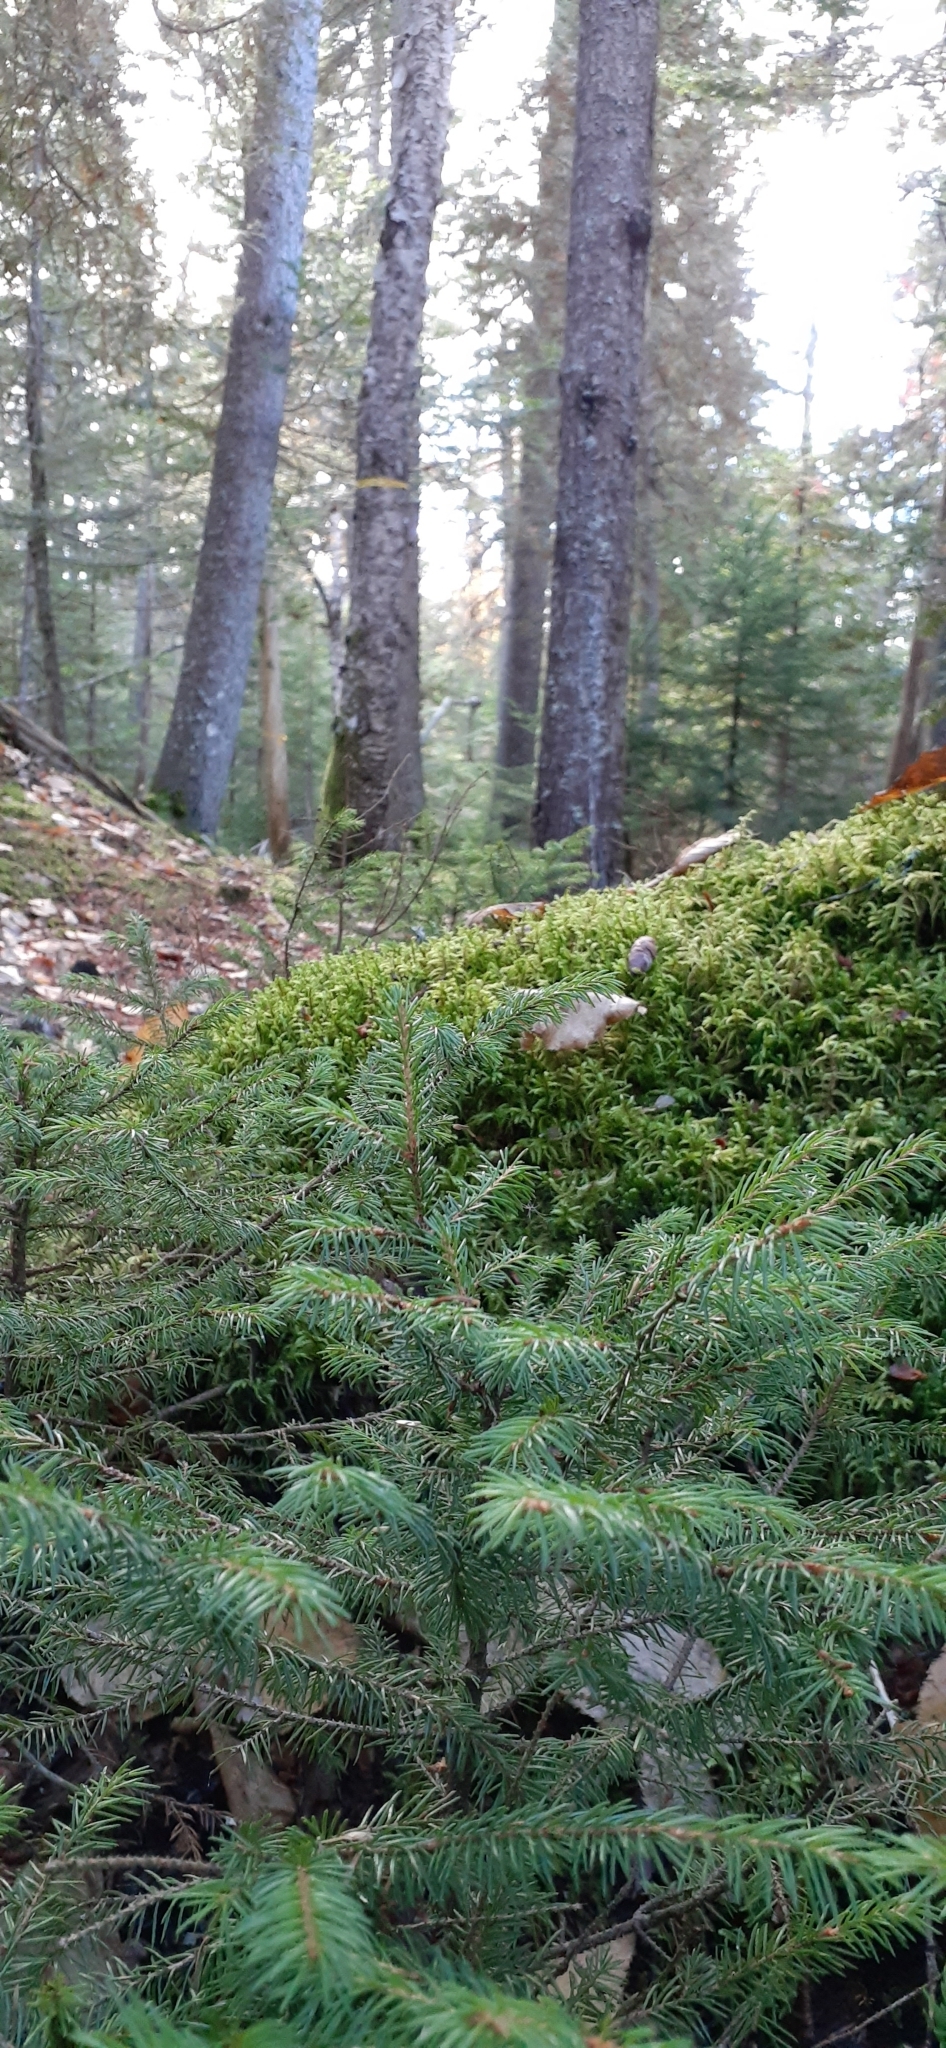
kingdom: Plantae
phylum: Tracheophyta
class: Pinopsida
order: Pinales
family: Pinaceae
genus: Picea
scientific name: Picea rubens
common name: Red spruce
